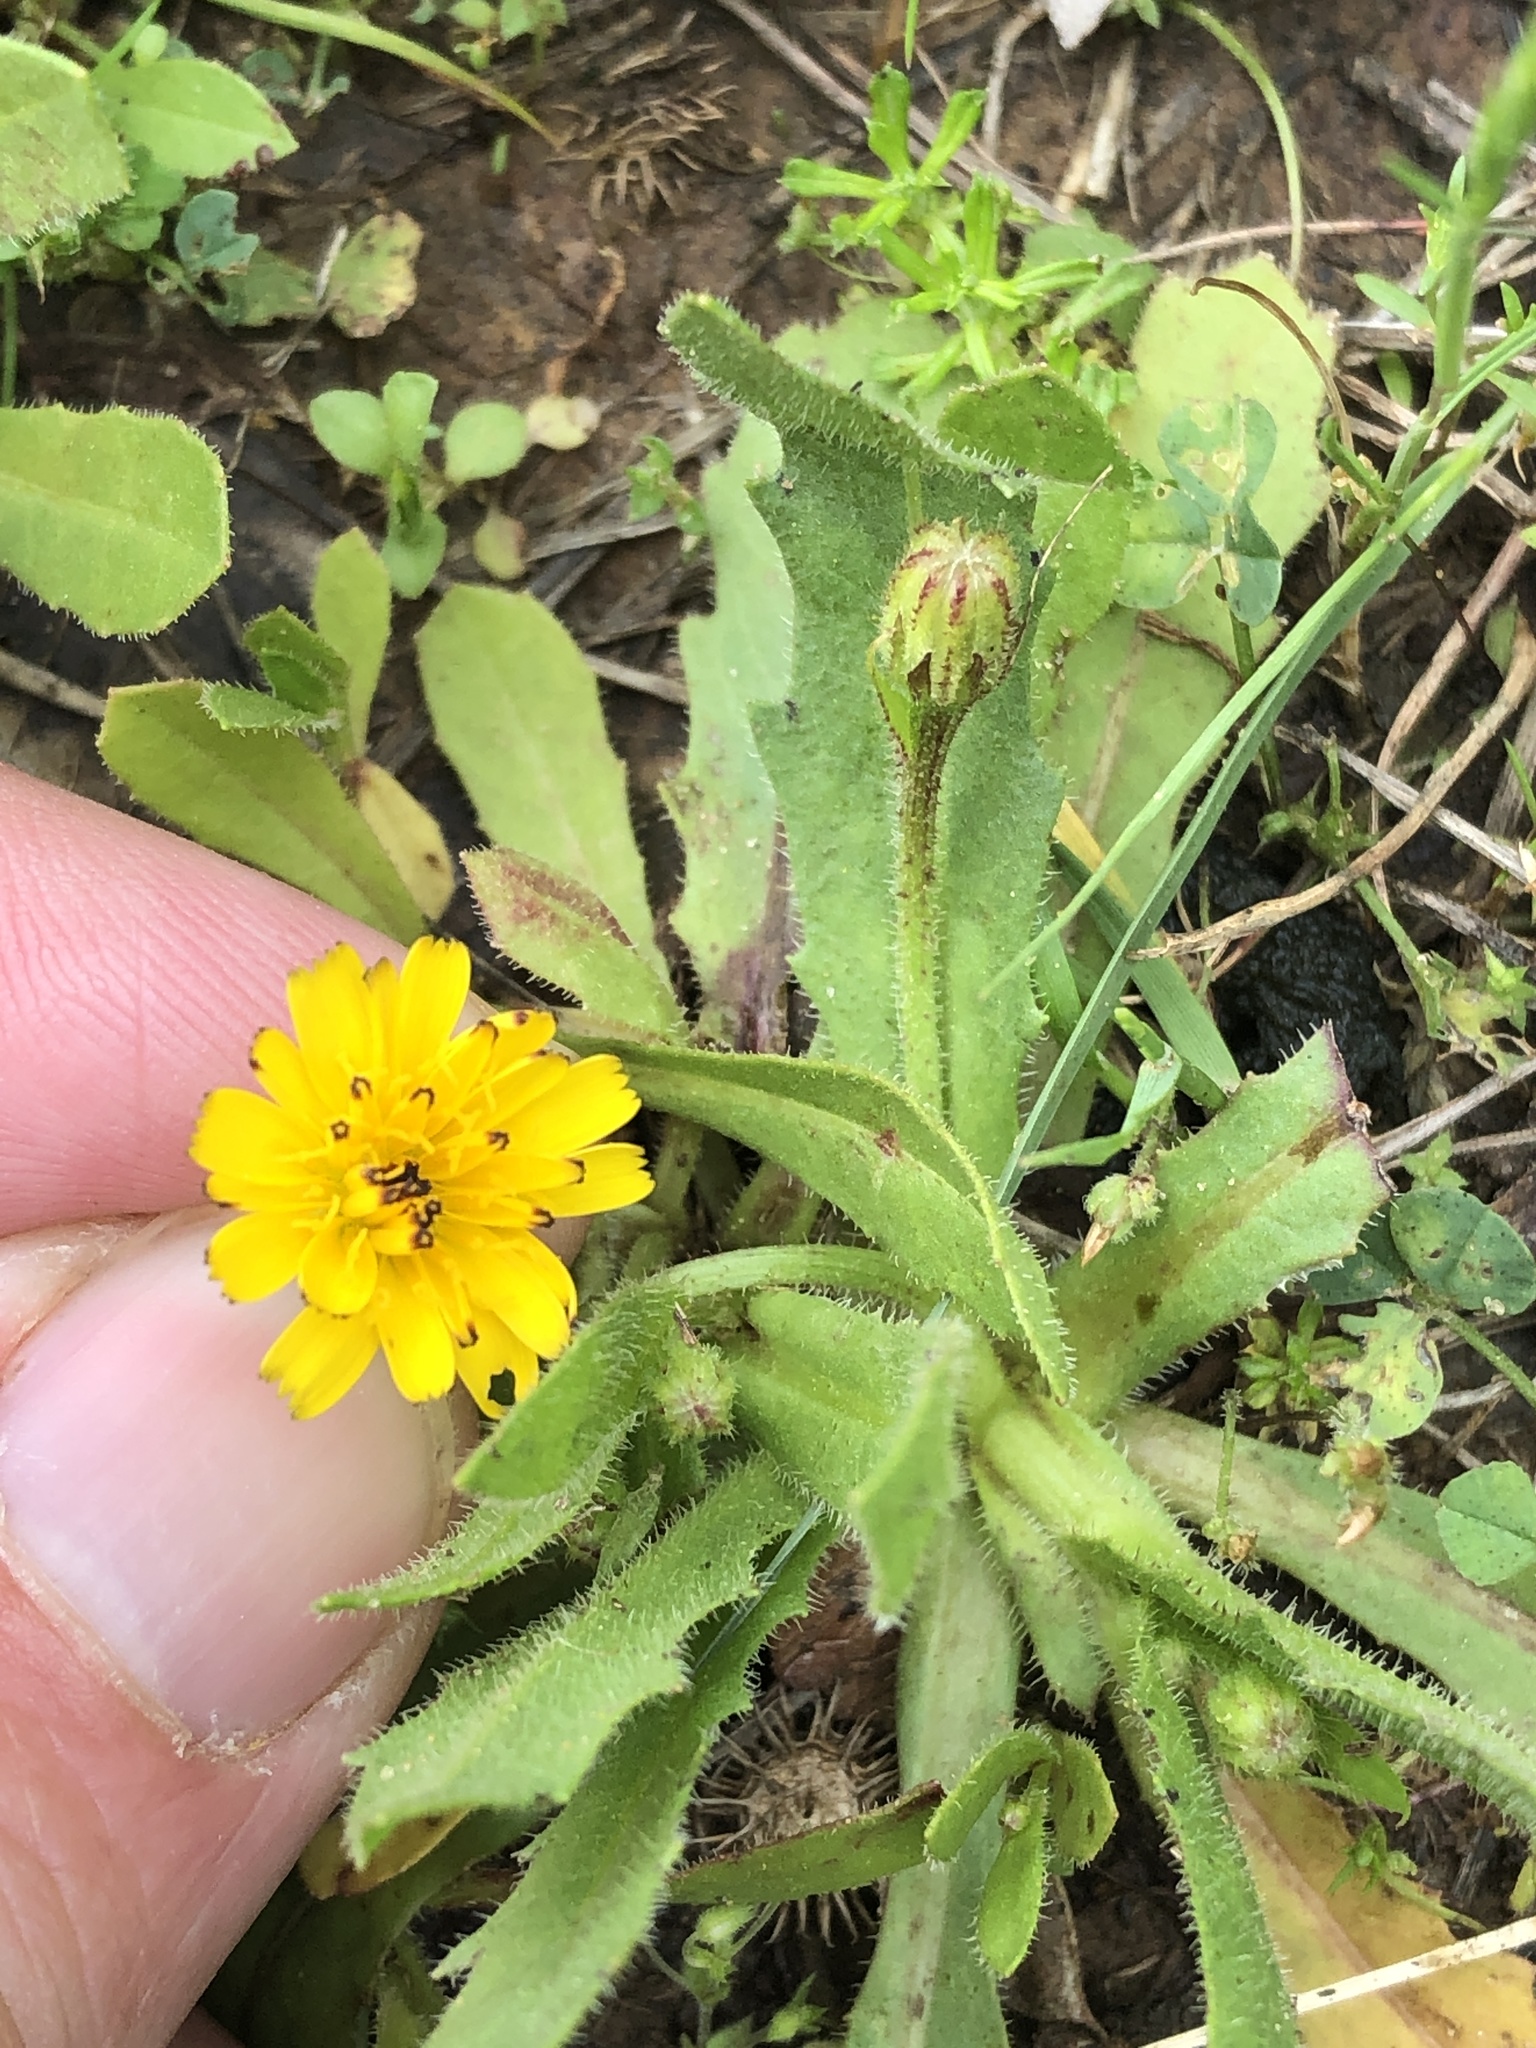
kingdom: Plantae
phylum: Tracheophyta
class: Magnoliopsida
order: Asterales
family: Asteraceae
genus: Hedypnois
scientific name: Hedypnois rhagadioloides
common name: Cretan weed
